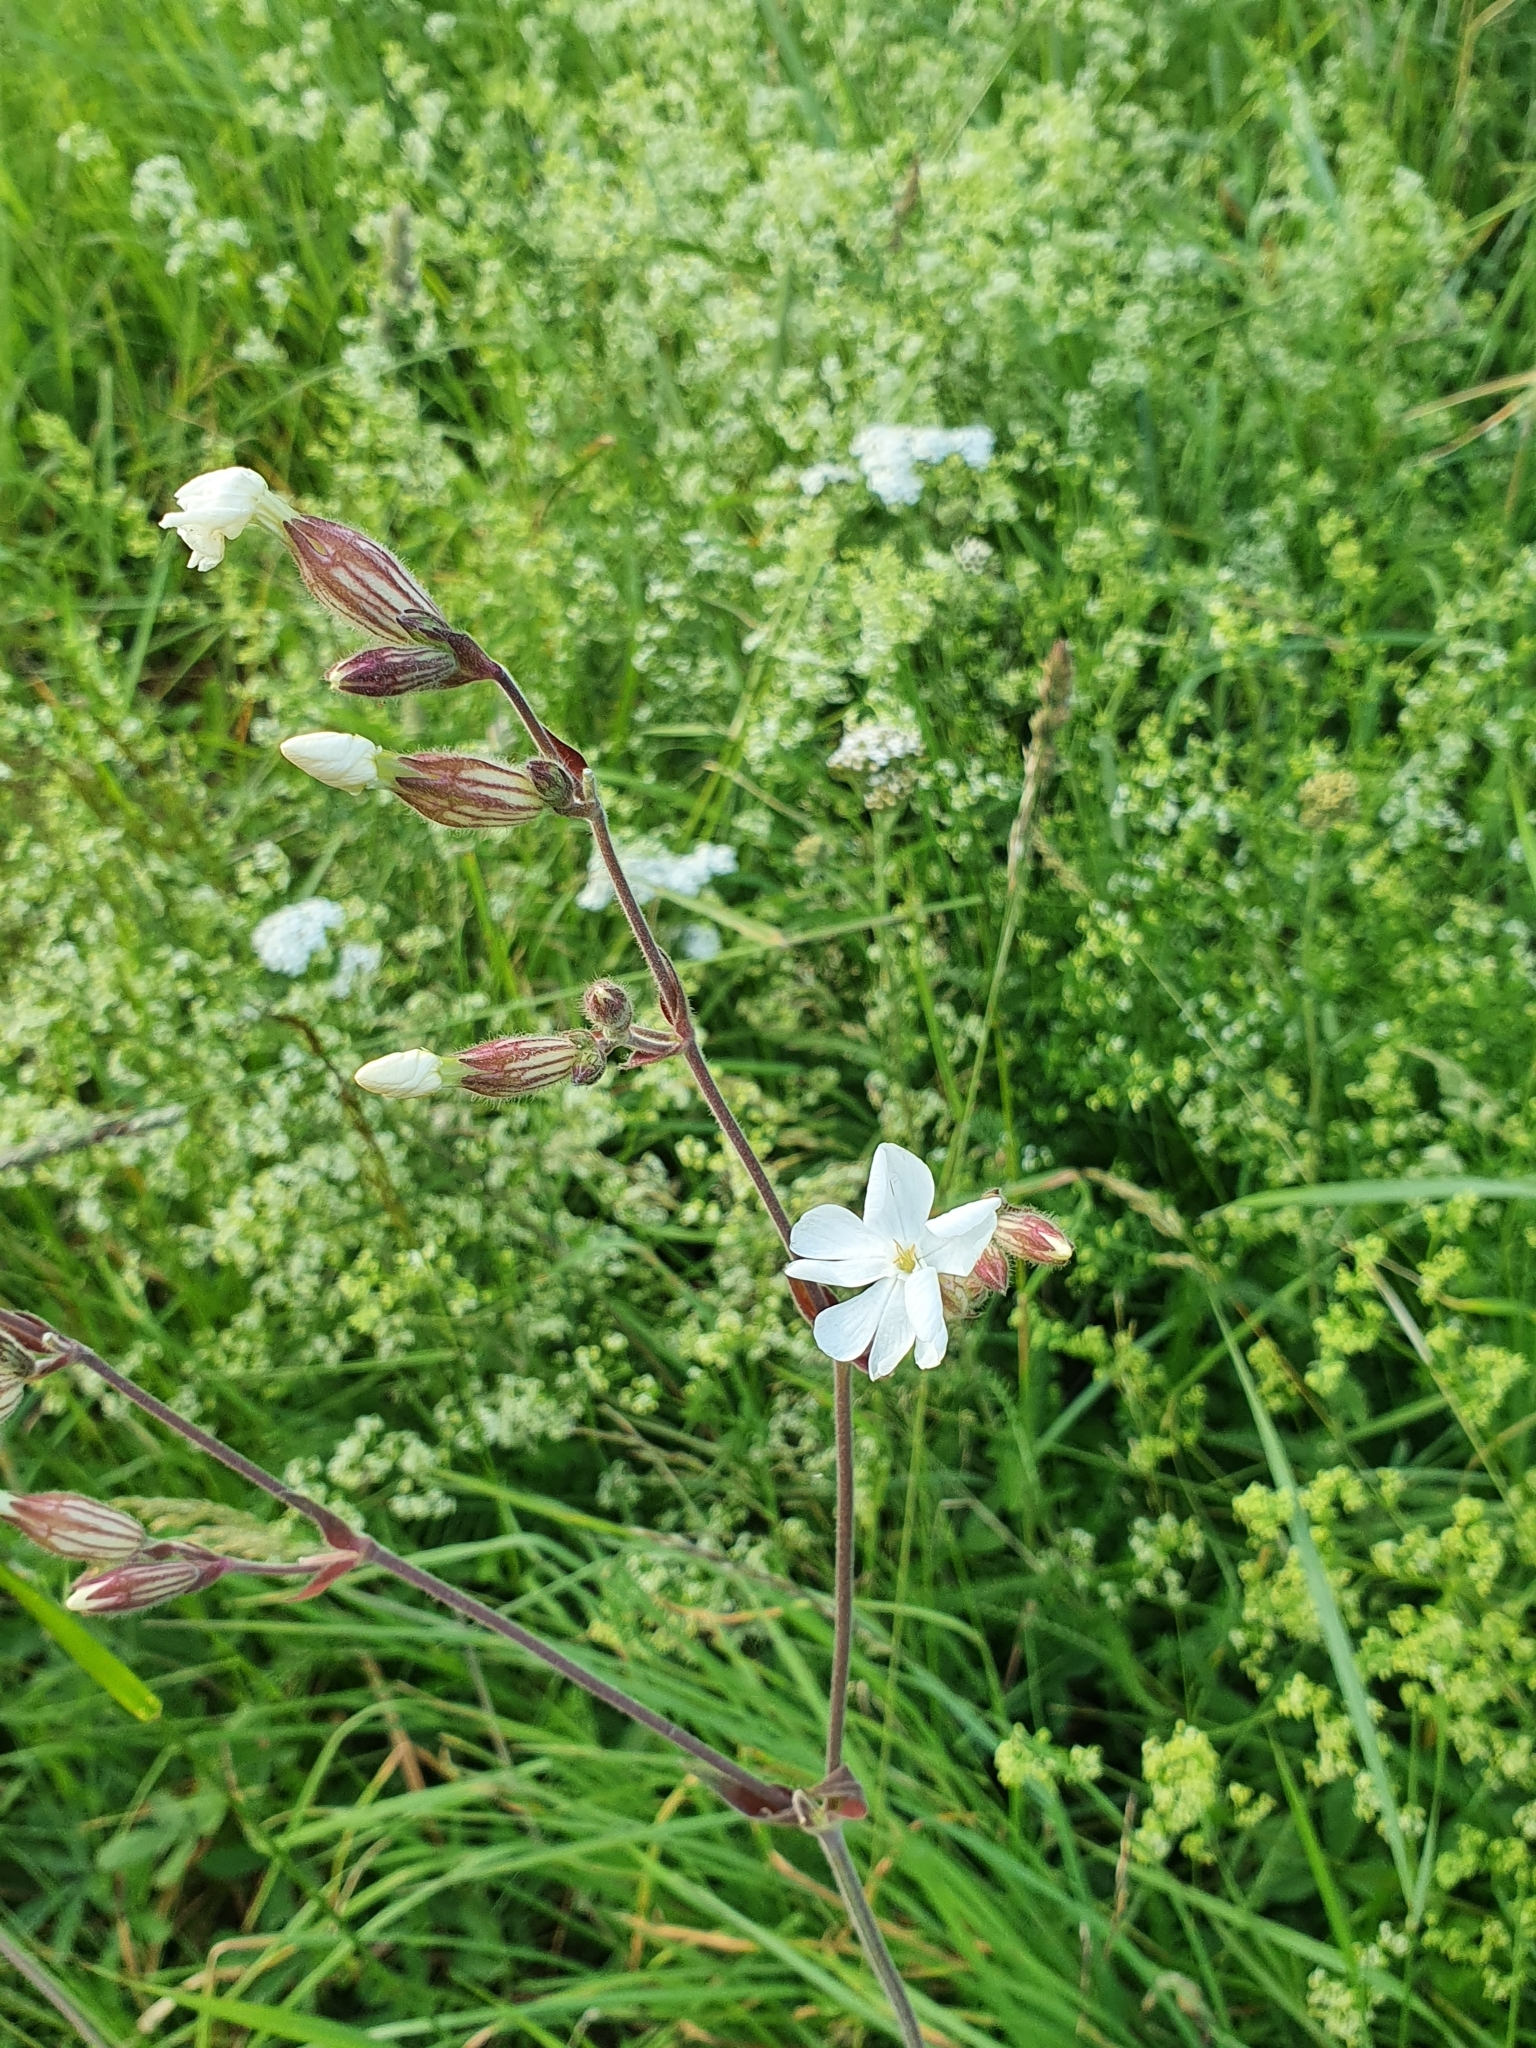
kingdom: Plantae
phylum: Tracheophyta
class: Magnoliopsida
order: Caryophyllales
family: Caryophyllaceae
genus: Silene
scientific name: Silene latifolia
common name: White campion
